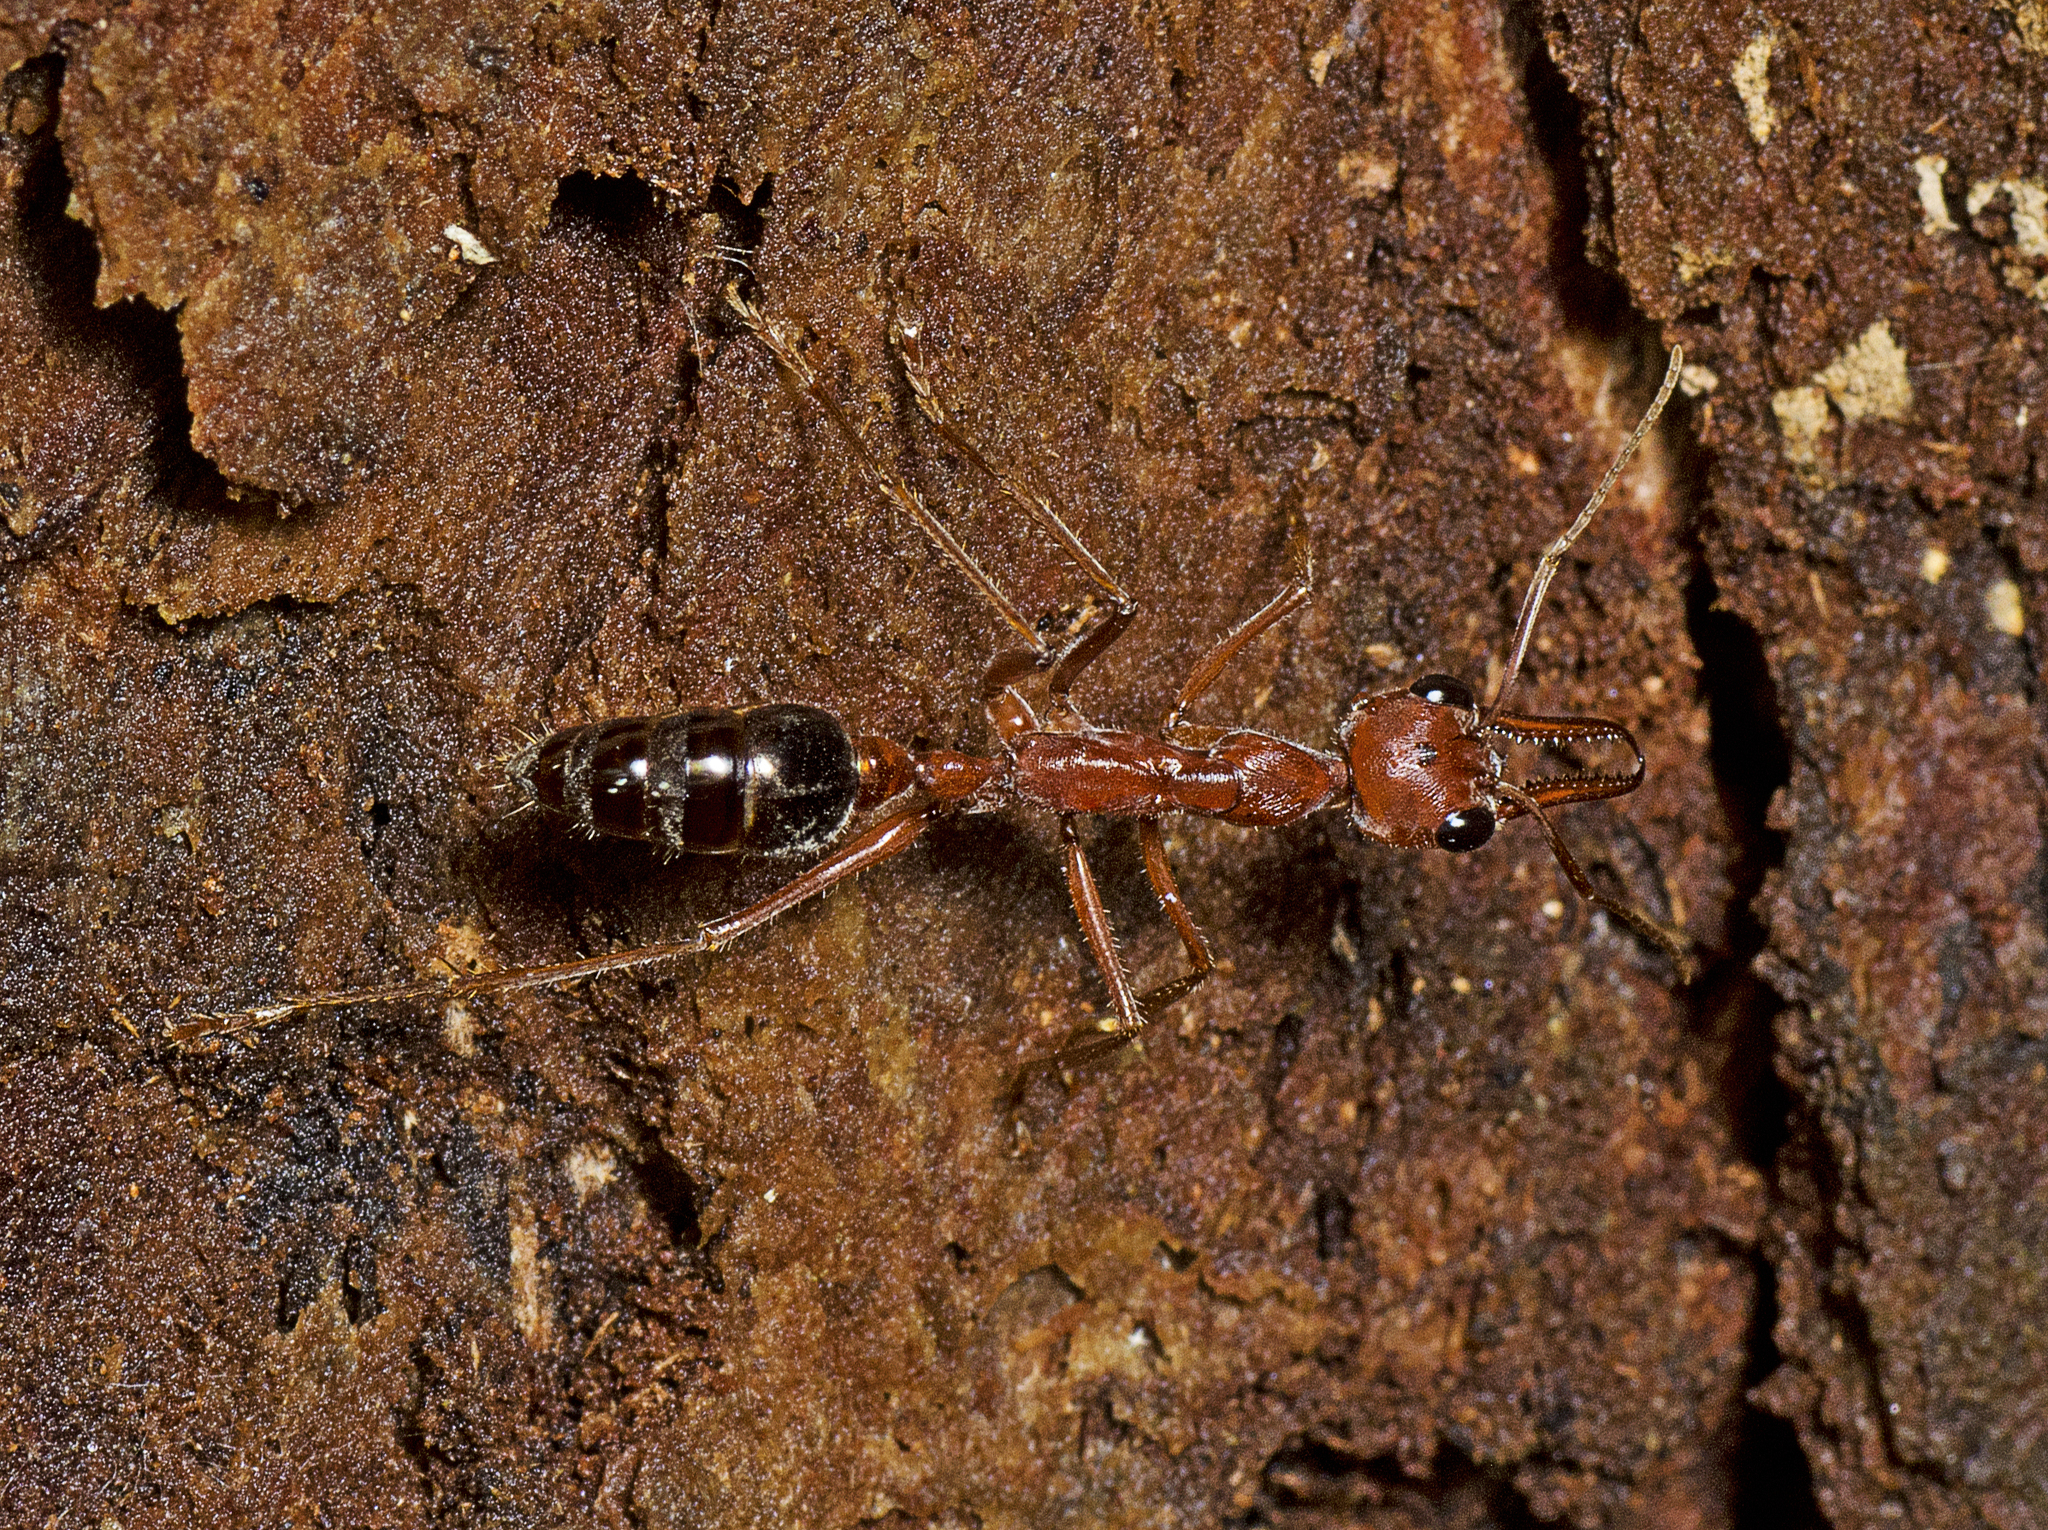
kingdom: Animalia
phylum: Arthropoda
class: Insecta
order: Hymenoptera
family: Formicidae
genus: Myrmecia
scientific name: Myrmecia brevinoda
